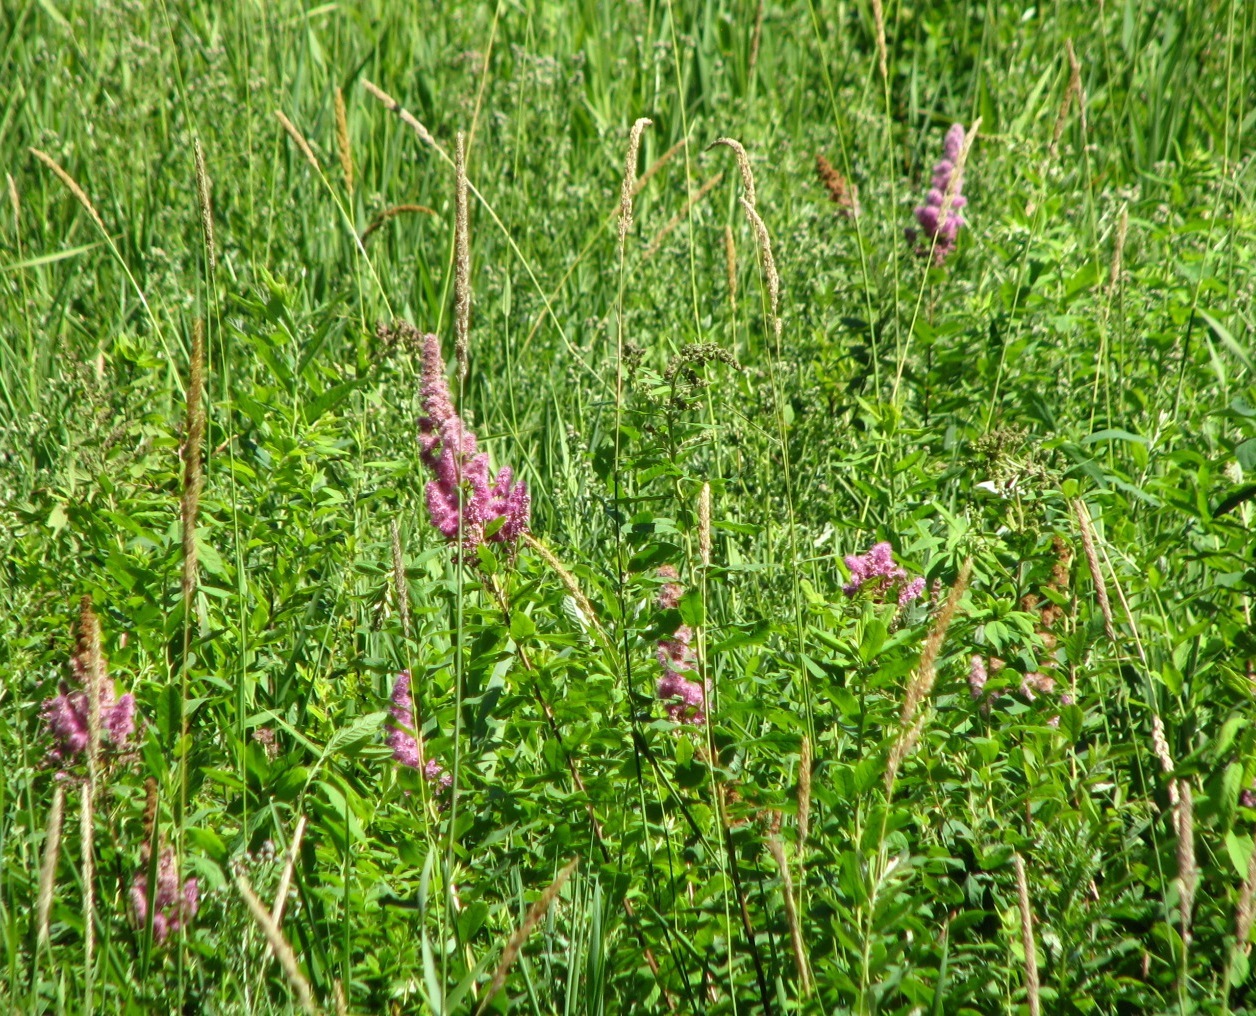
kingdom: Plantae
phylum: Tracheophyta
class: Magnoliopsida
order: Rosales
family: Rosaceae
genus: Spiraea
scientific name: Spiraea douglasii
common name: Steeplebush
